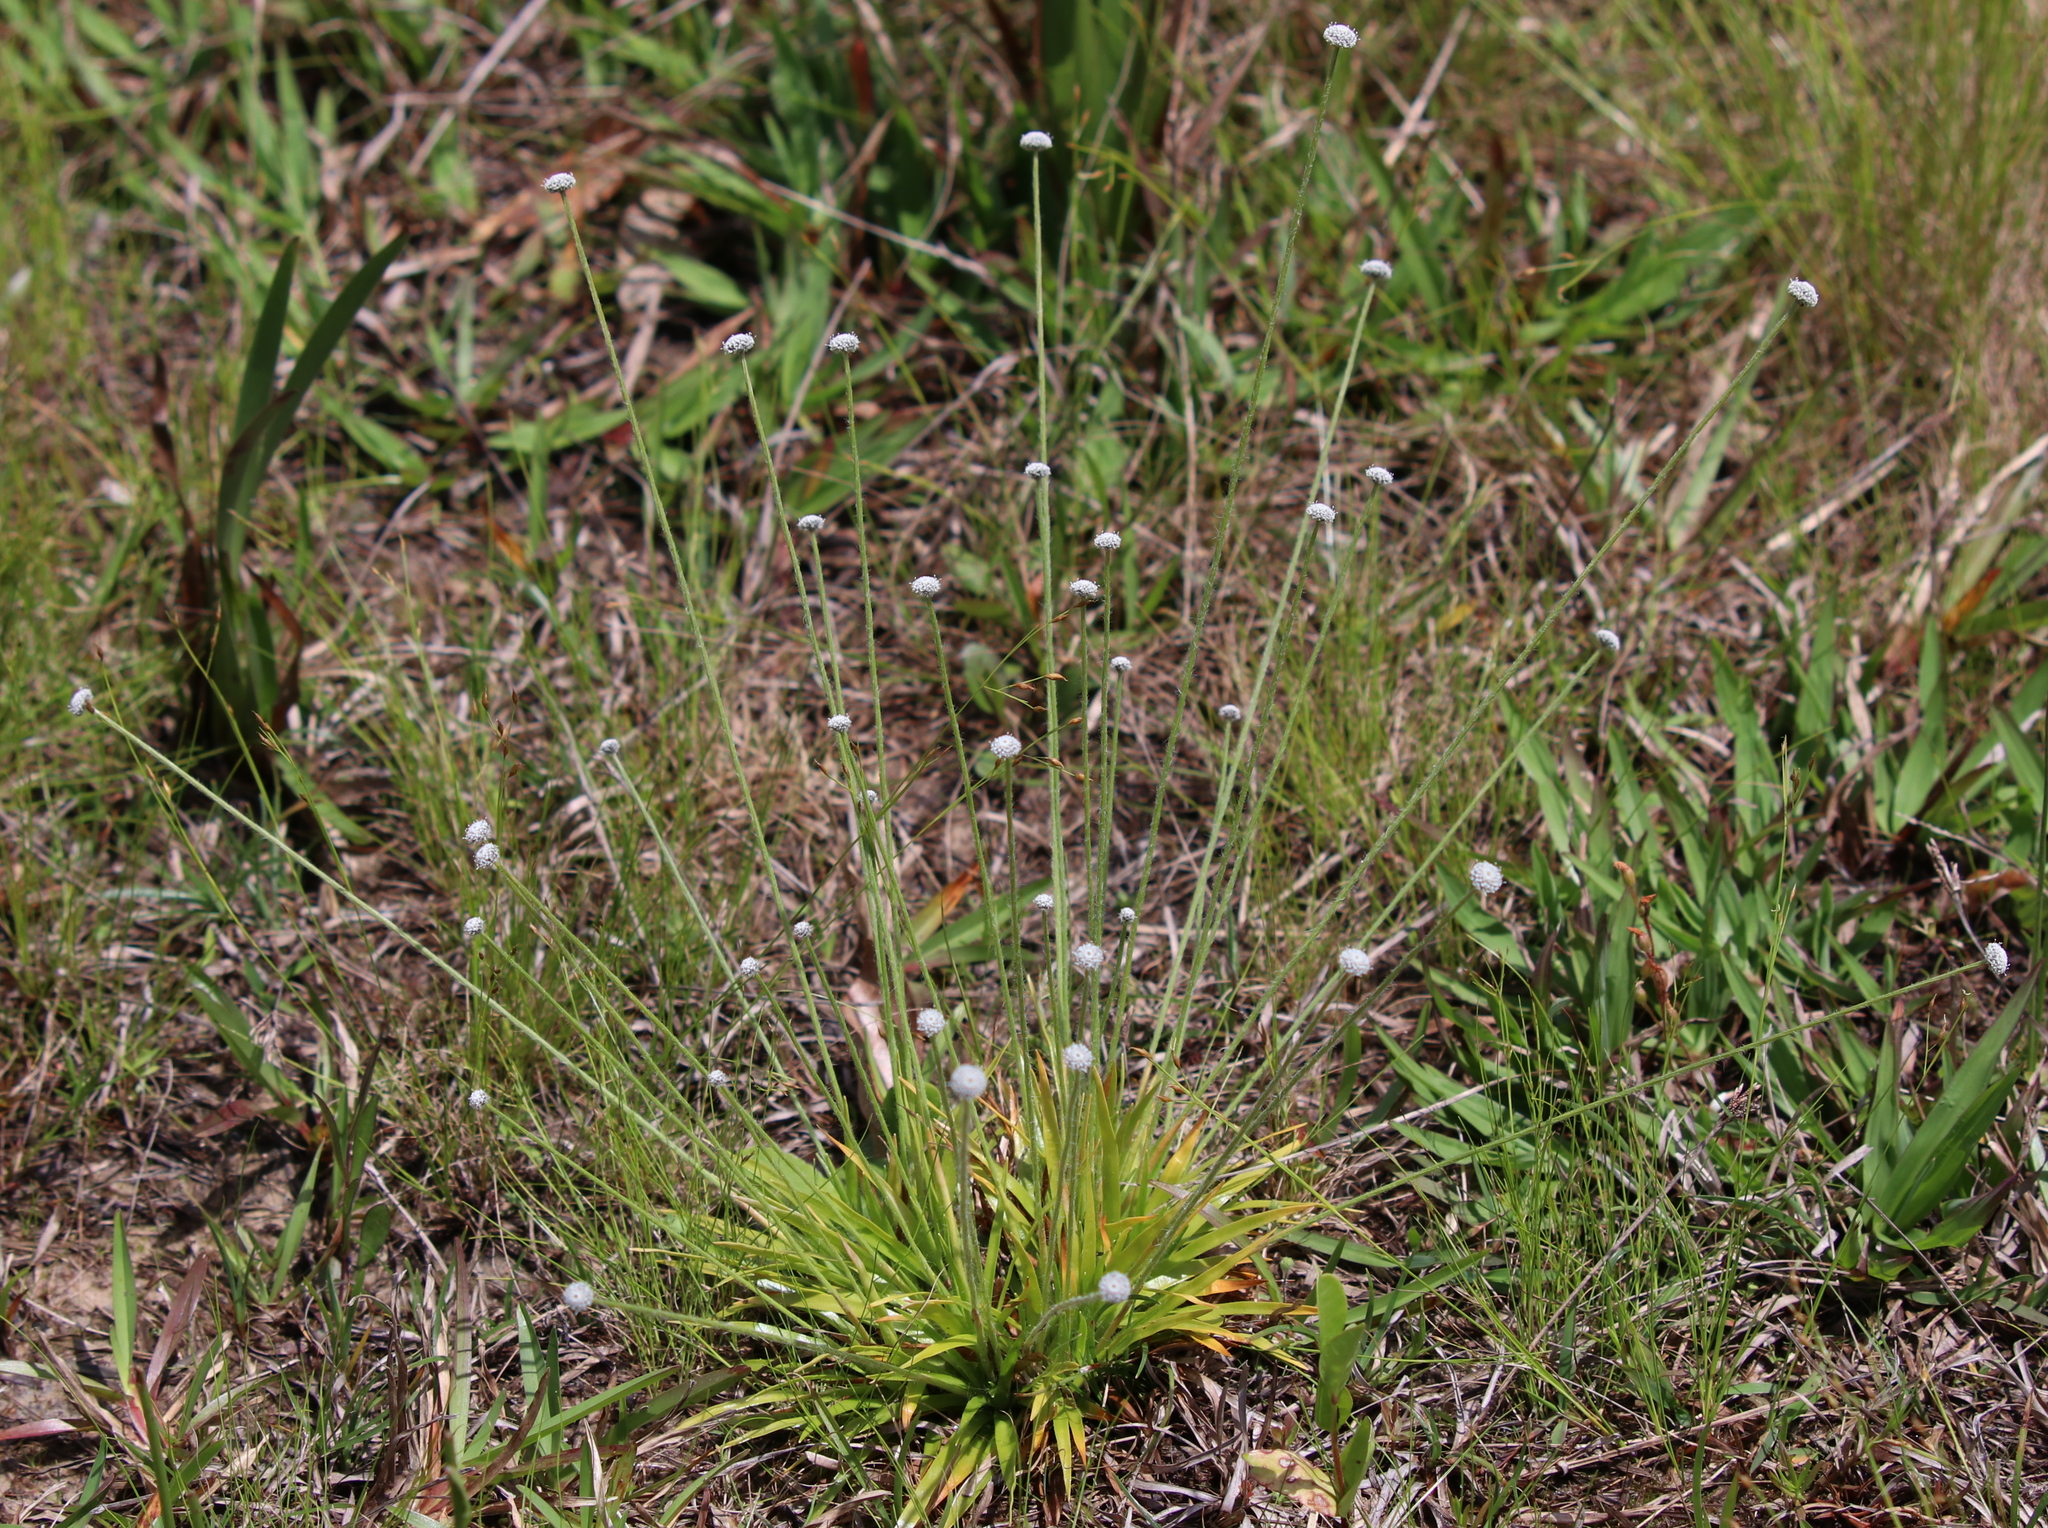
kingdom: Plantae
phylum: Tracheophyta
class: Liliopsida
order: Poales
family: Eriocaulaceae
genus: Paepalanthus
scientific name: Paepalanthus anceps
